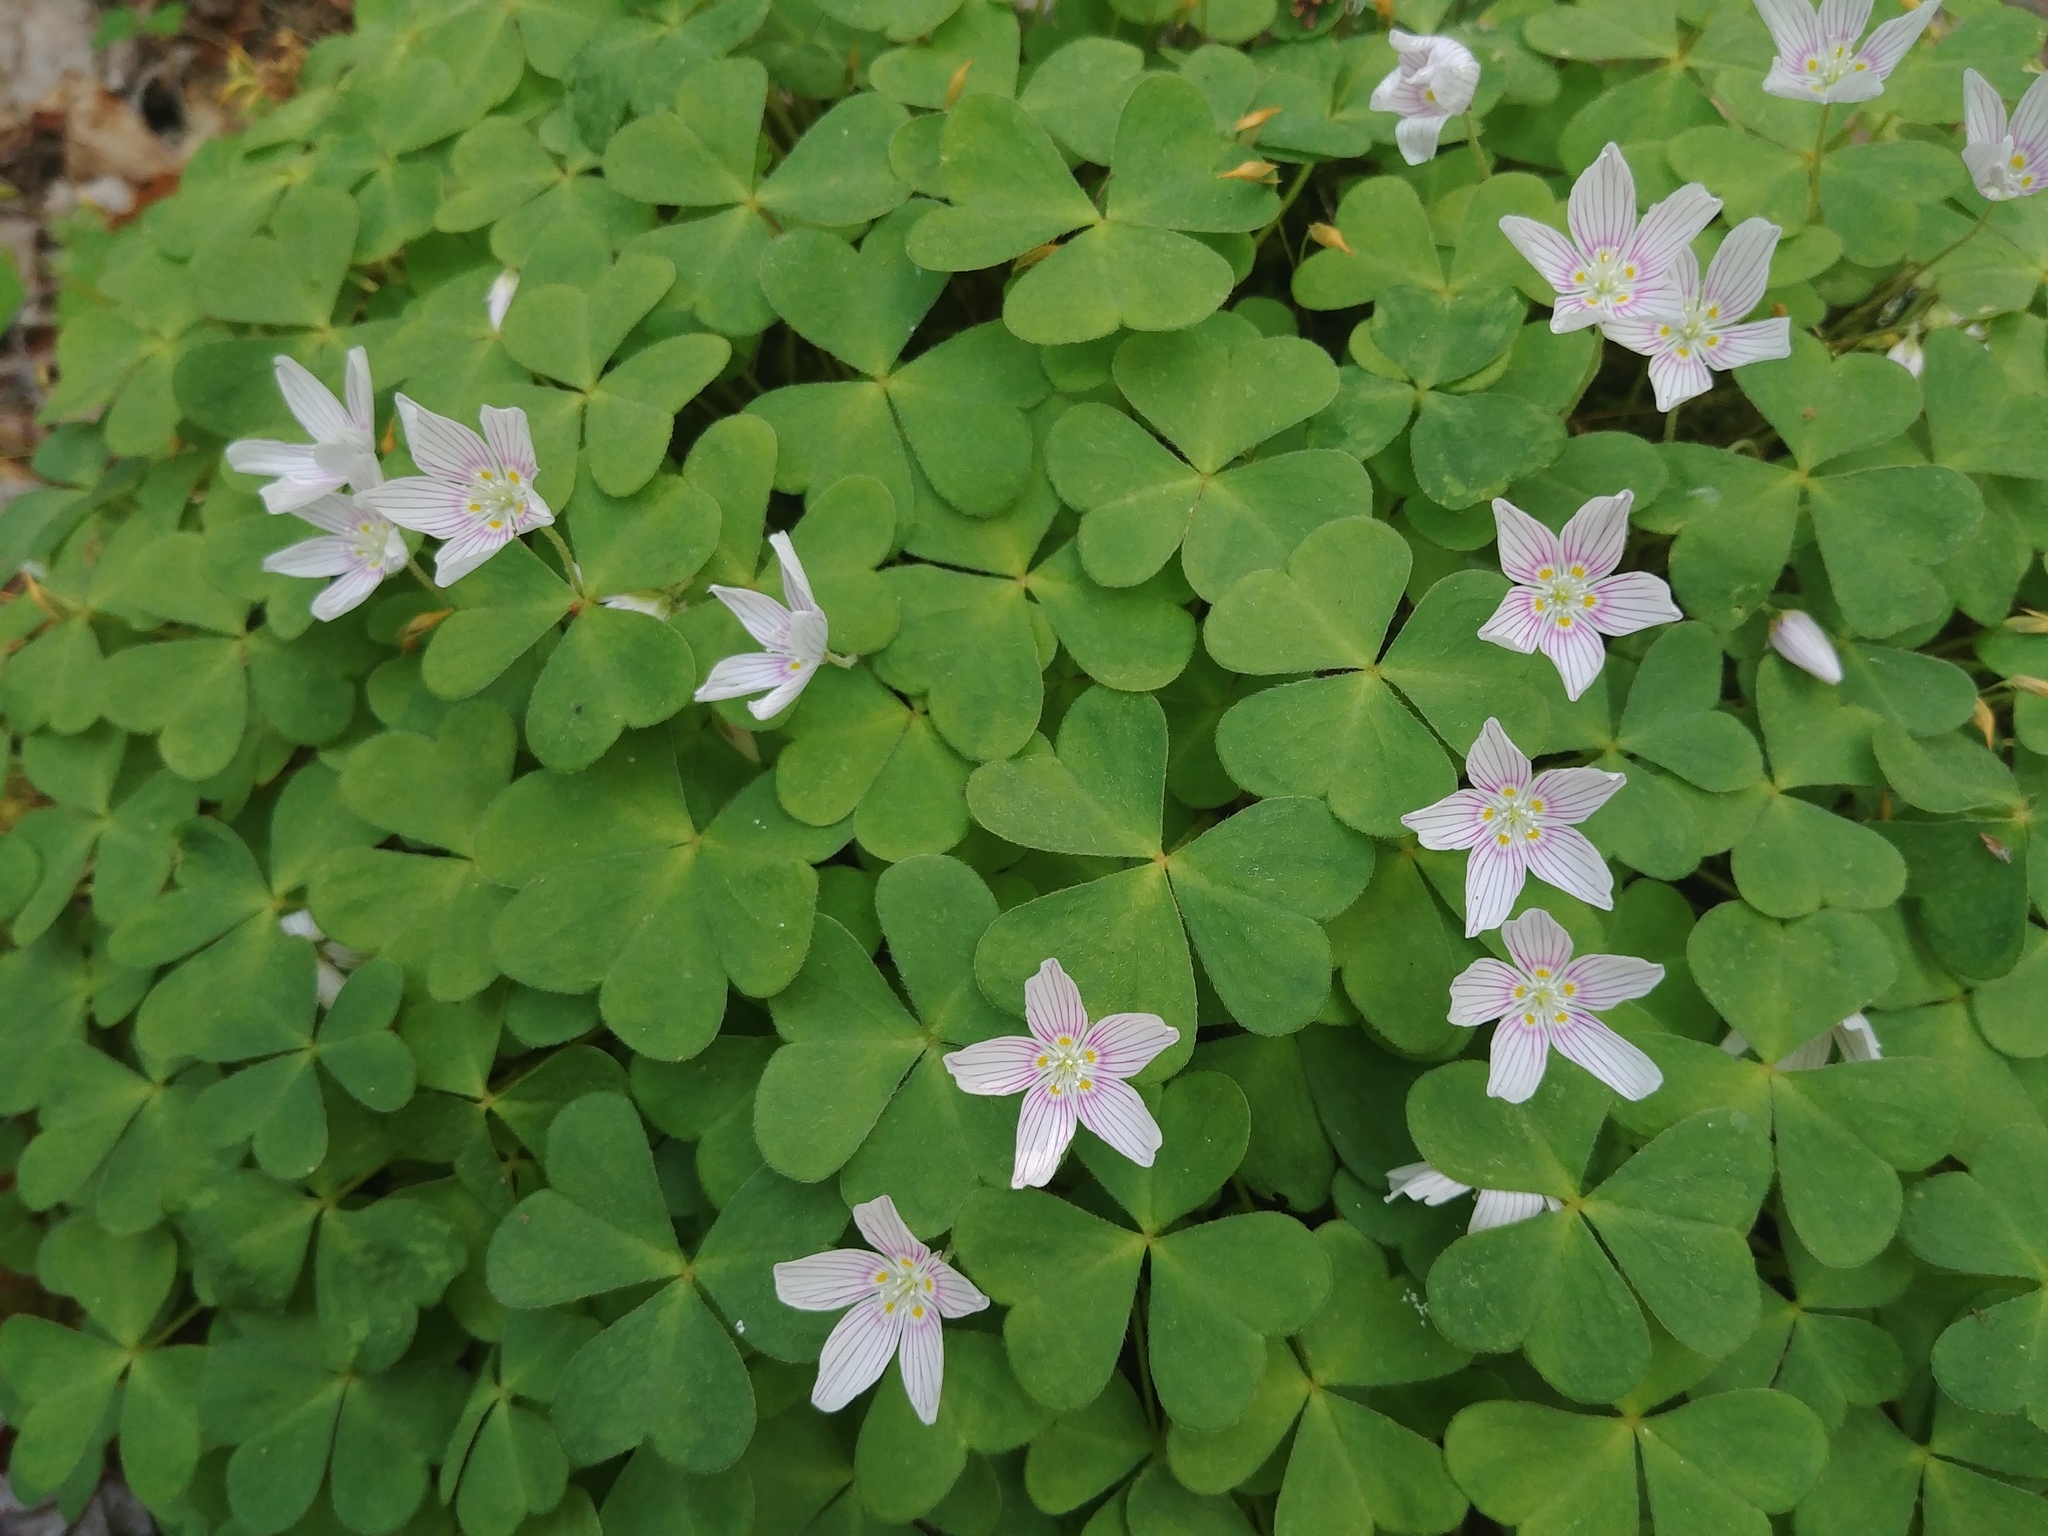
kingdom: Plantae
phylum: Tracheophyta
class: Magnoliopsida
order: Oxalidales
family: Oxalidaceae
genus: Oxalis
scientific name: Oxalis montana
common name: American wood-sorrel
